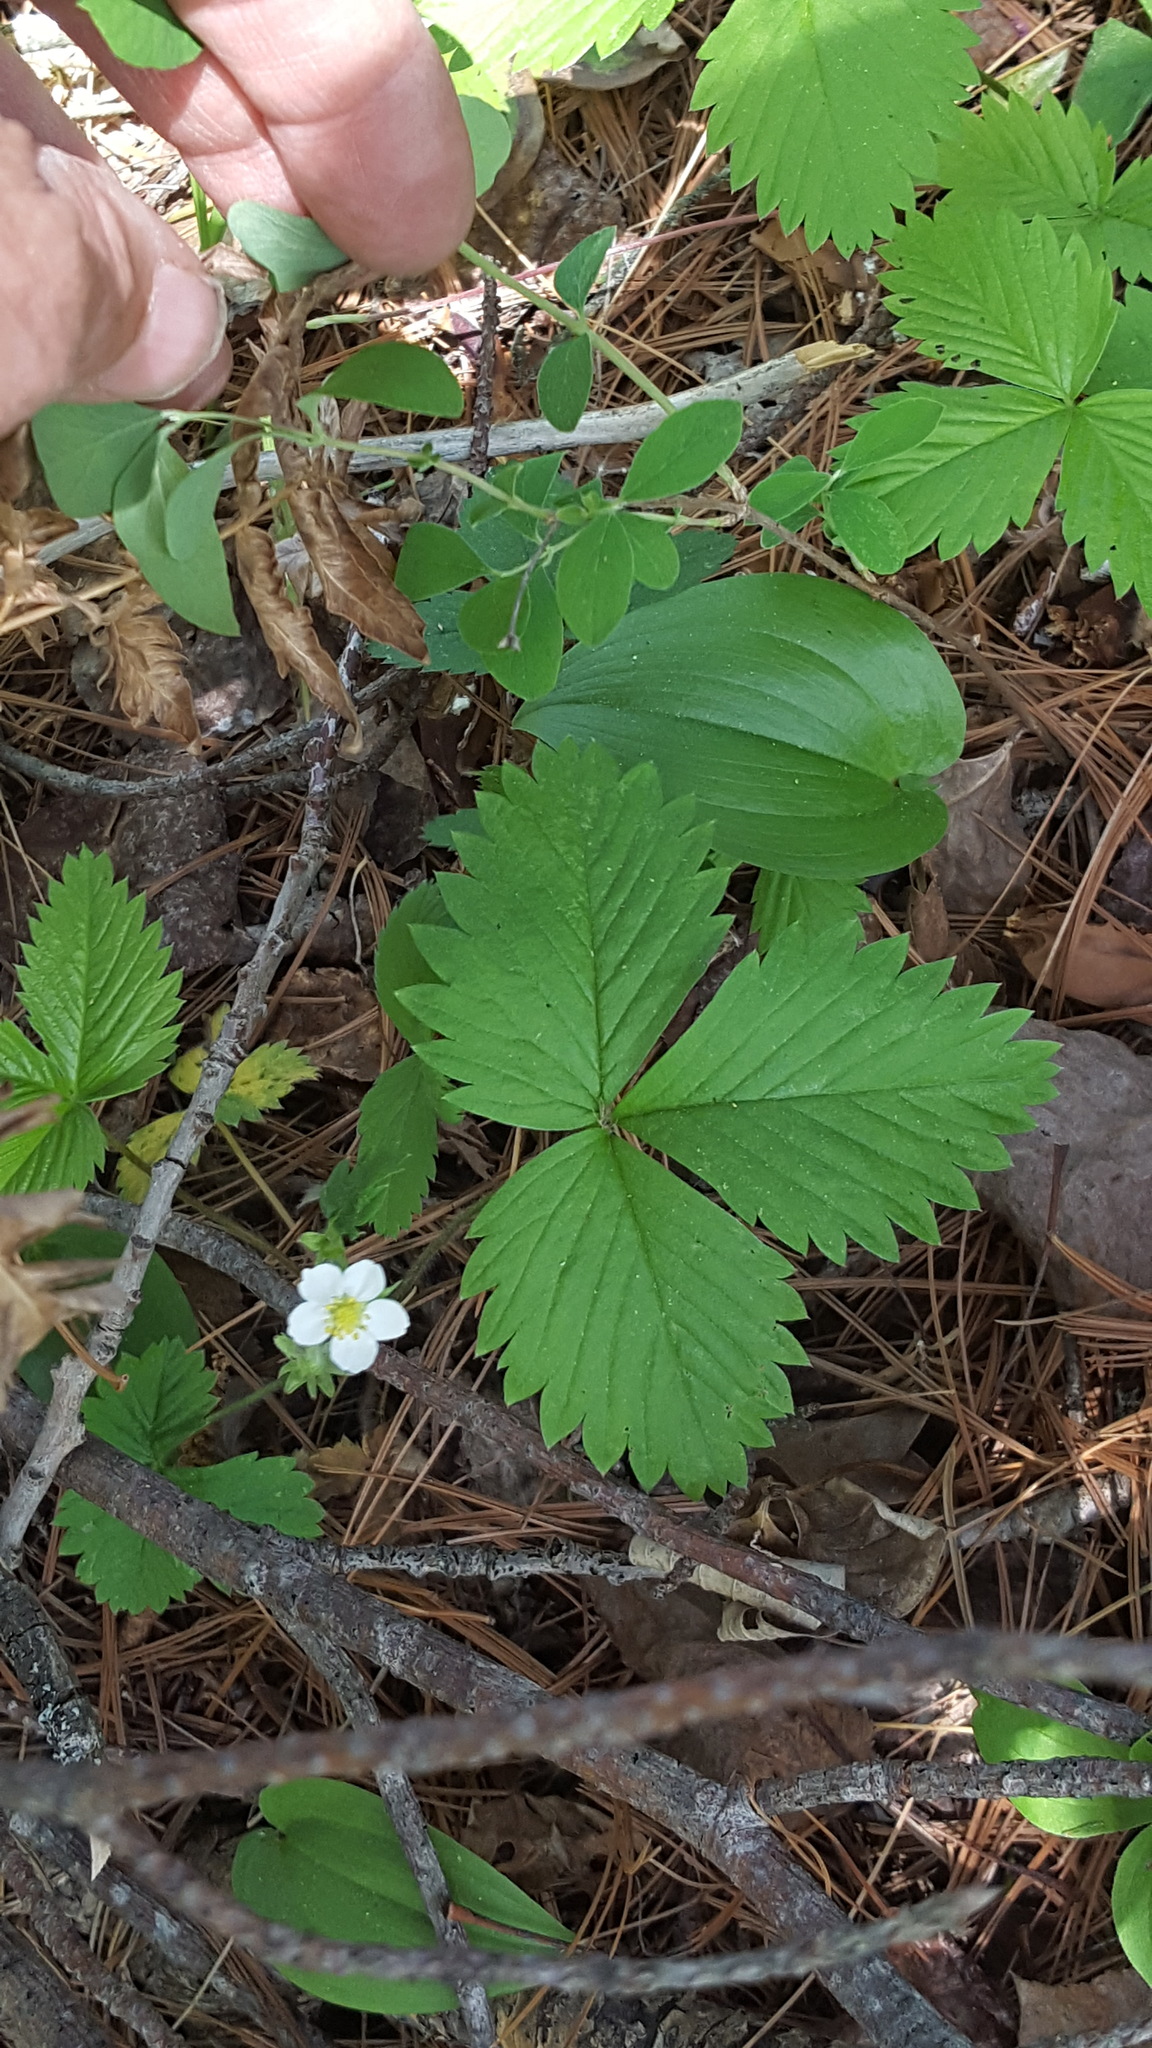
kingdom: Plantae
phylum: Tracheophyta
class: Magnoliopsida
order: Rosales
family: Rosaceae
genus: Fragaria
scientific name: Fragaria vesca
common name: Wild strawberry
